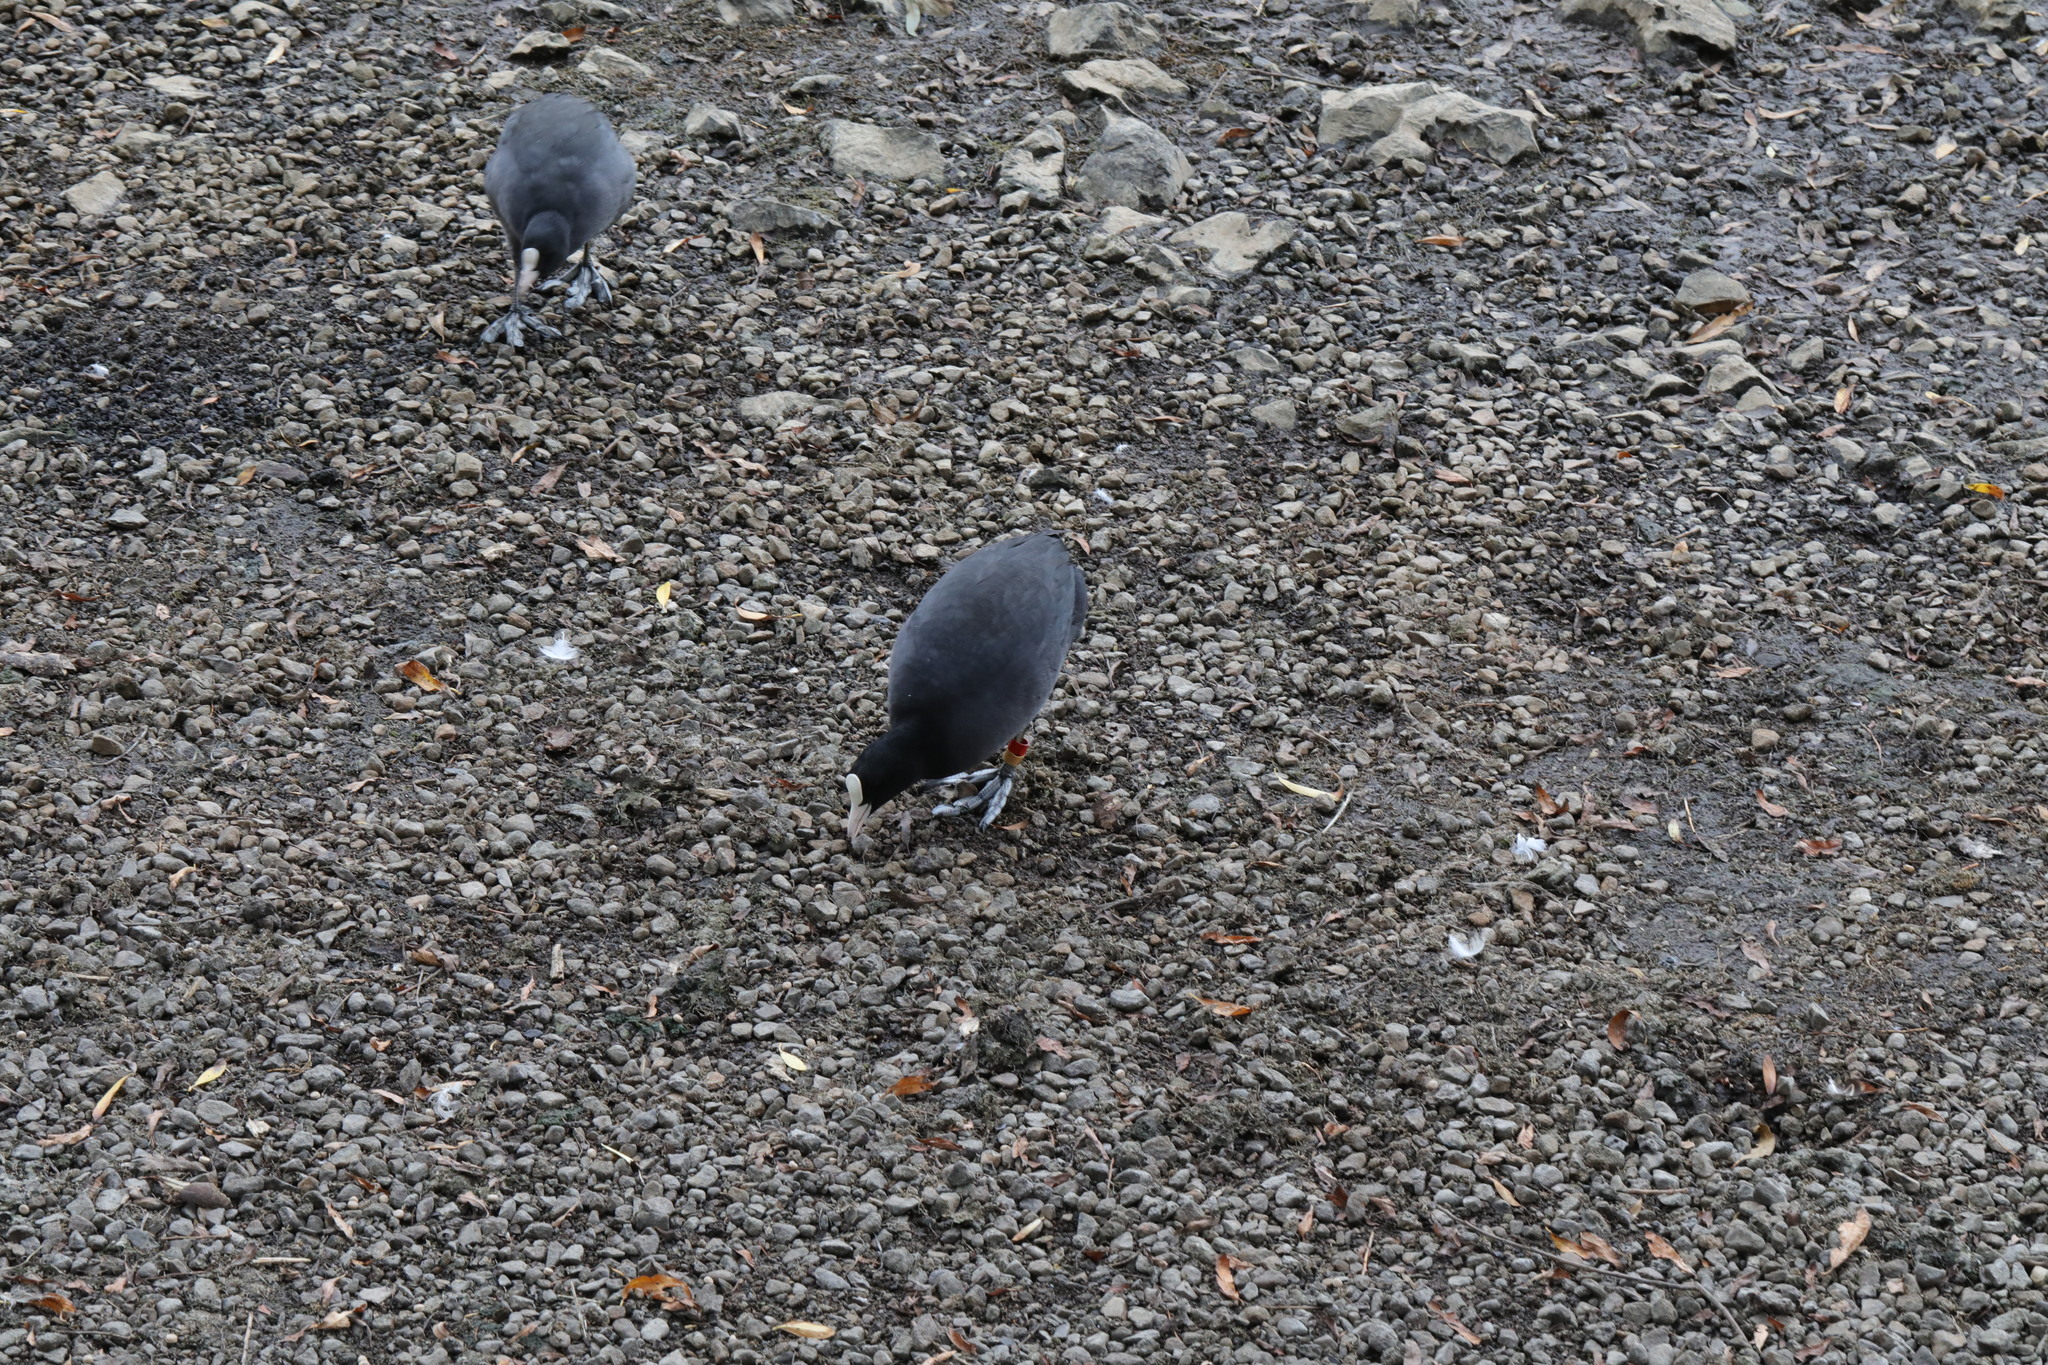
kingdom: Animalia
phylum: Chordata
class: Aves
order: Gruiformes
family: Rallidae
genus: Fulica
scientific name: Fulica atra
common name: Eurasian coot
